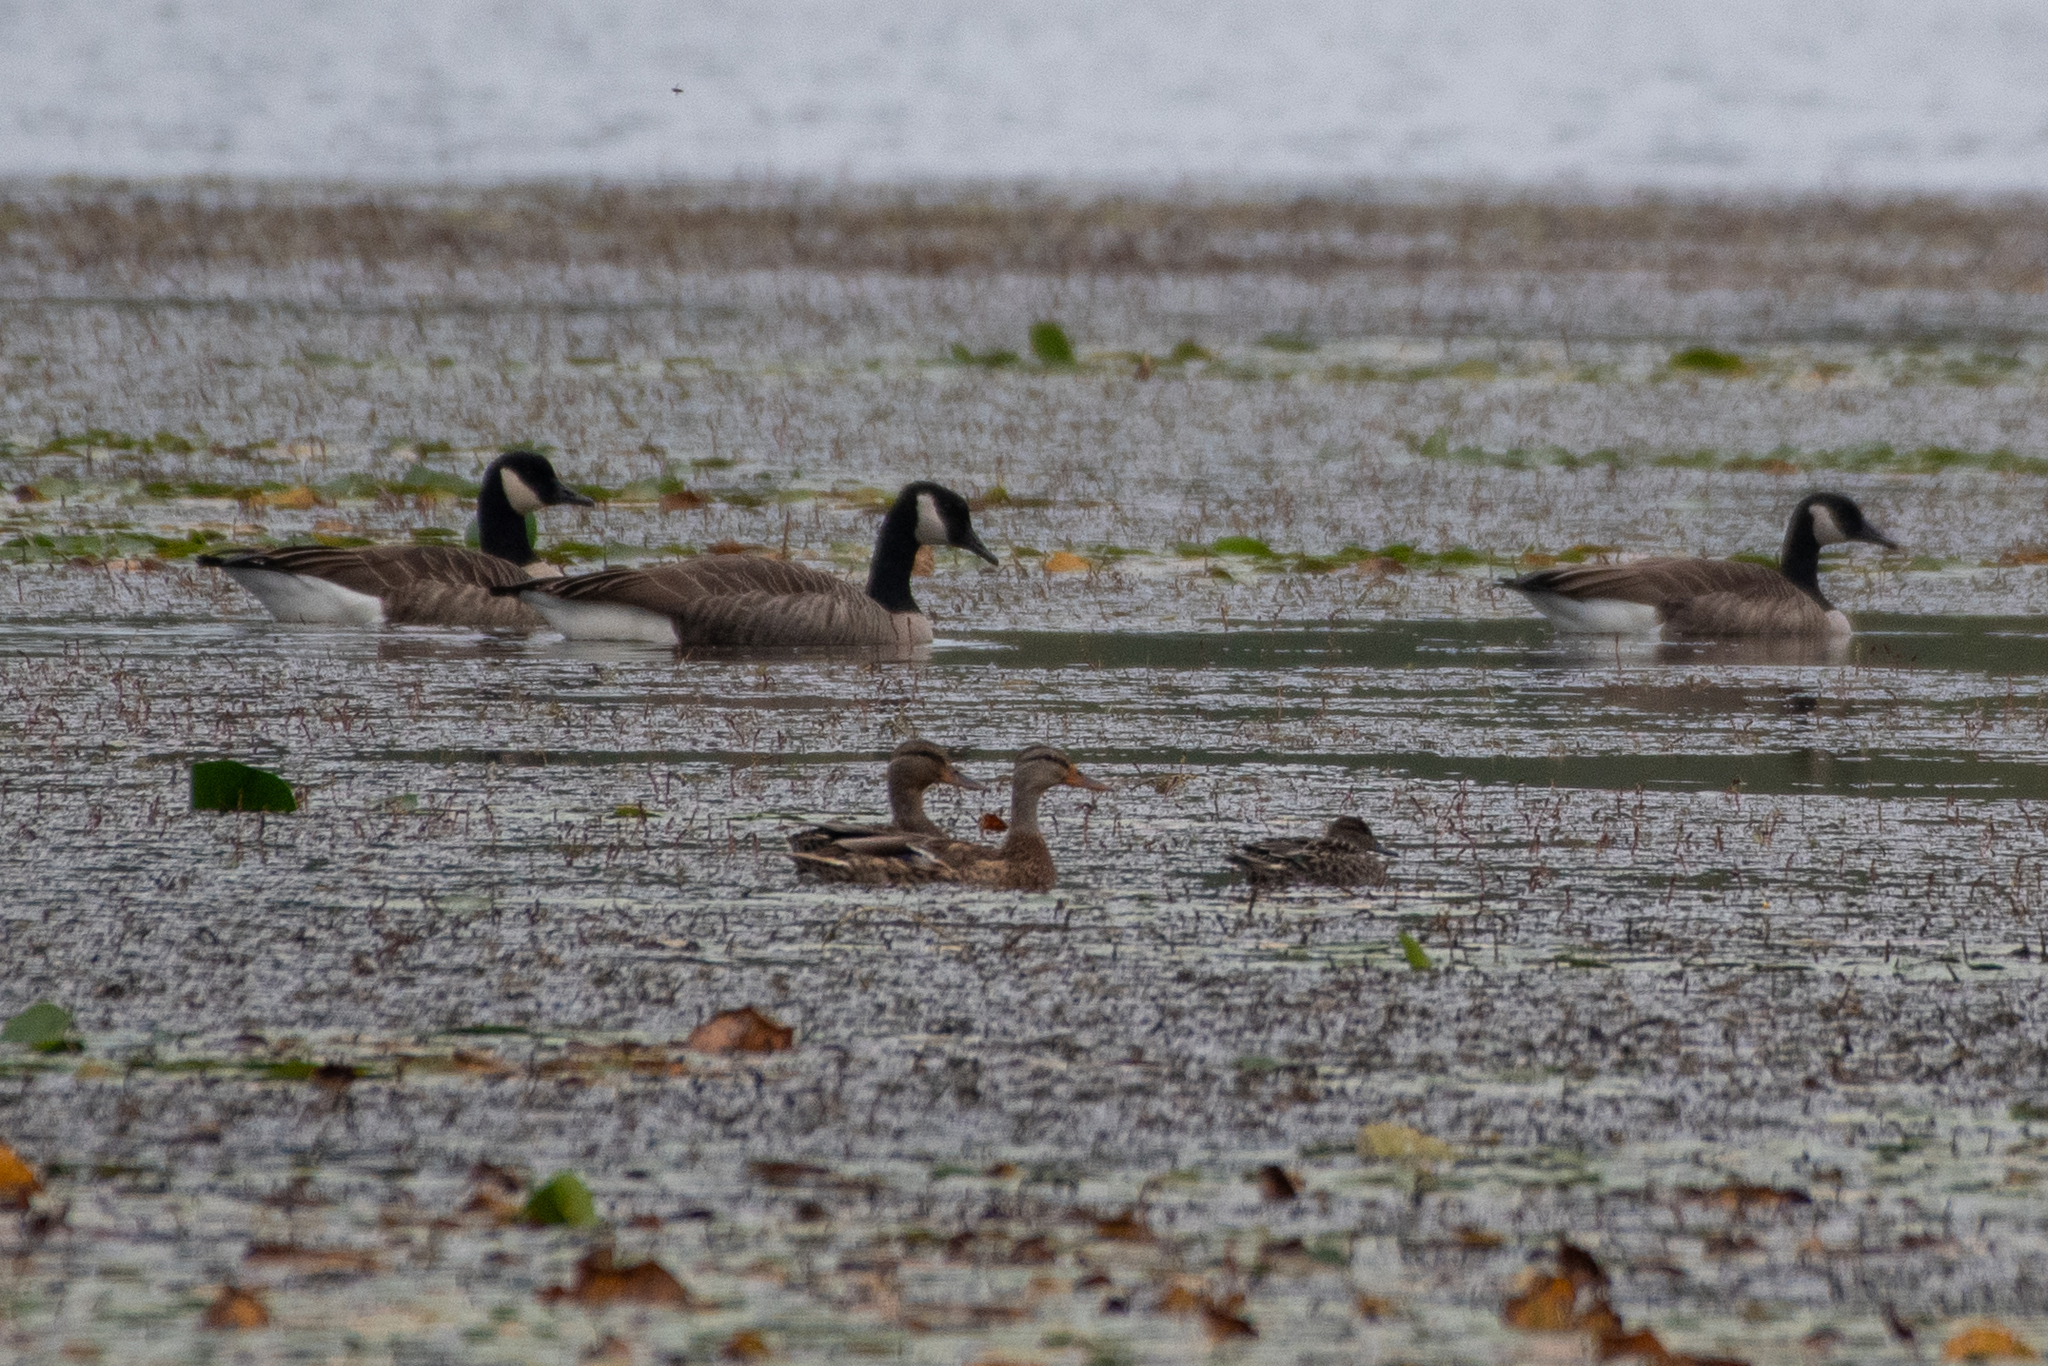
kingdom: Animalia
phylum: Chordata
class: Aves
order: Anseriformes
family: Anatidae
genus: Branta
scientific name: Branta canadensis
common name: Canada goose
